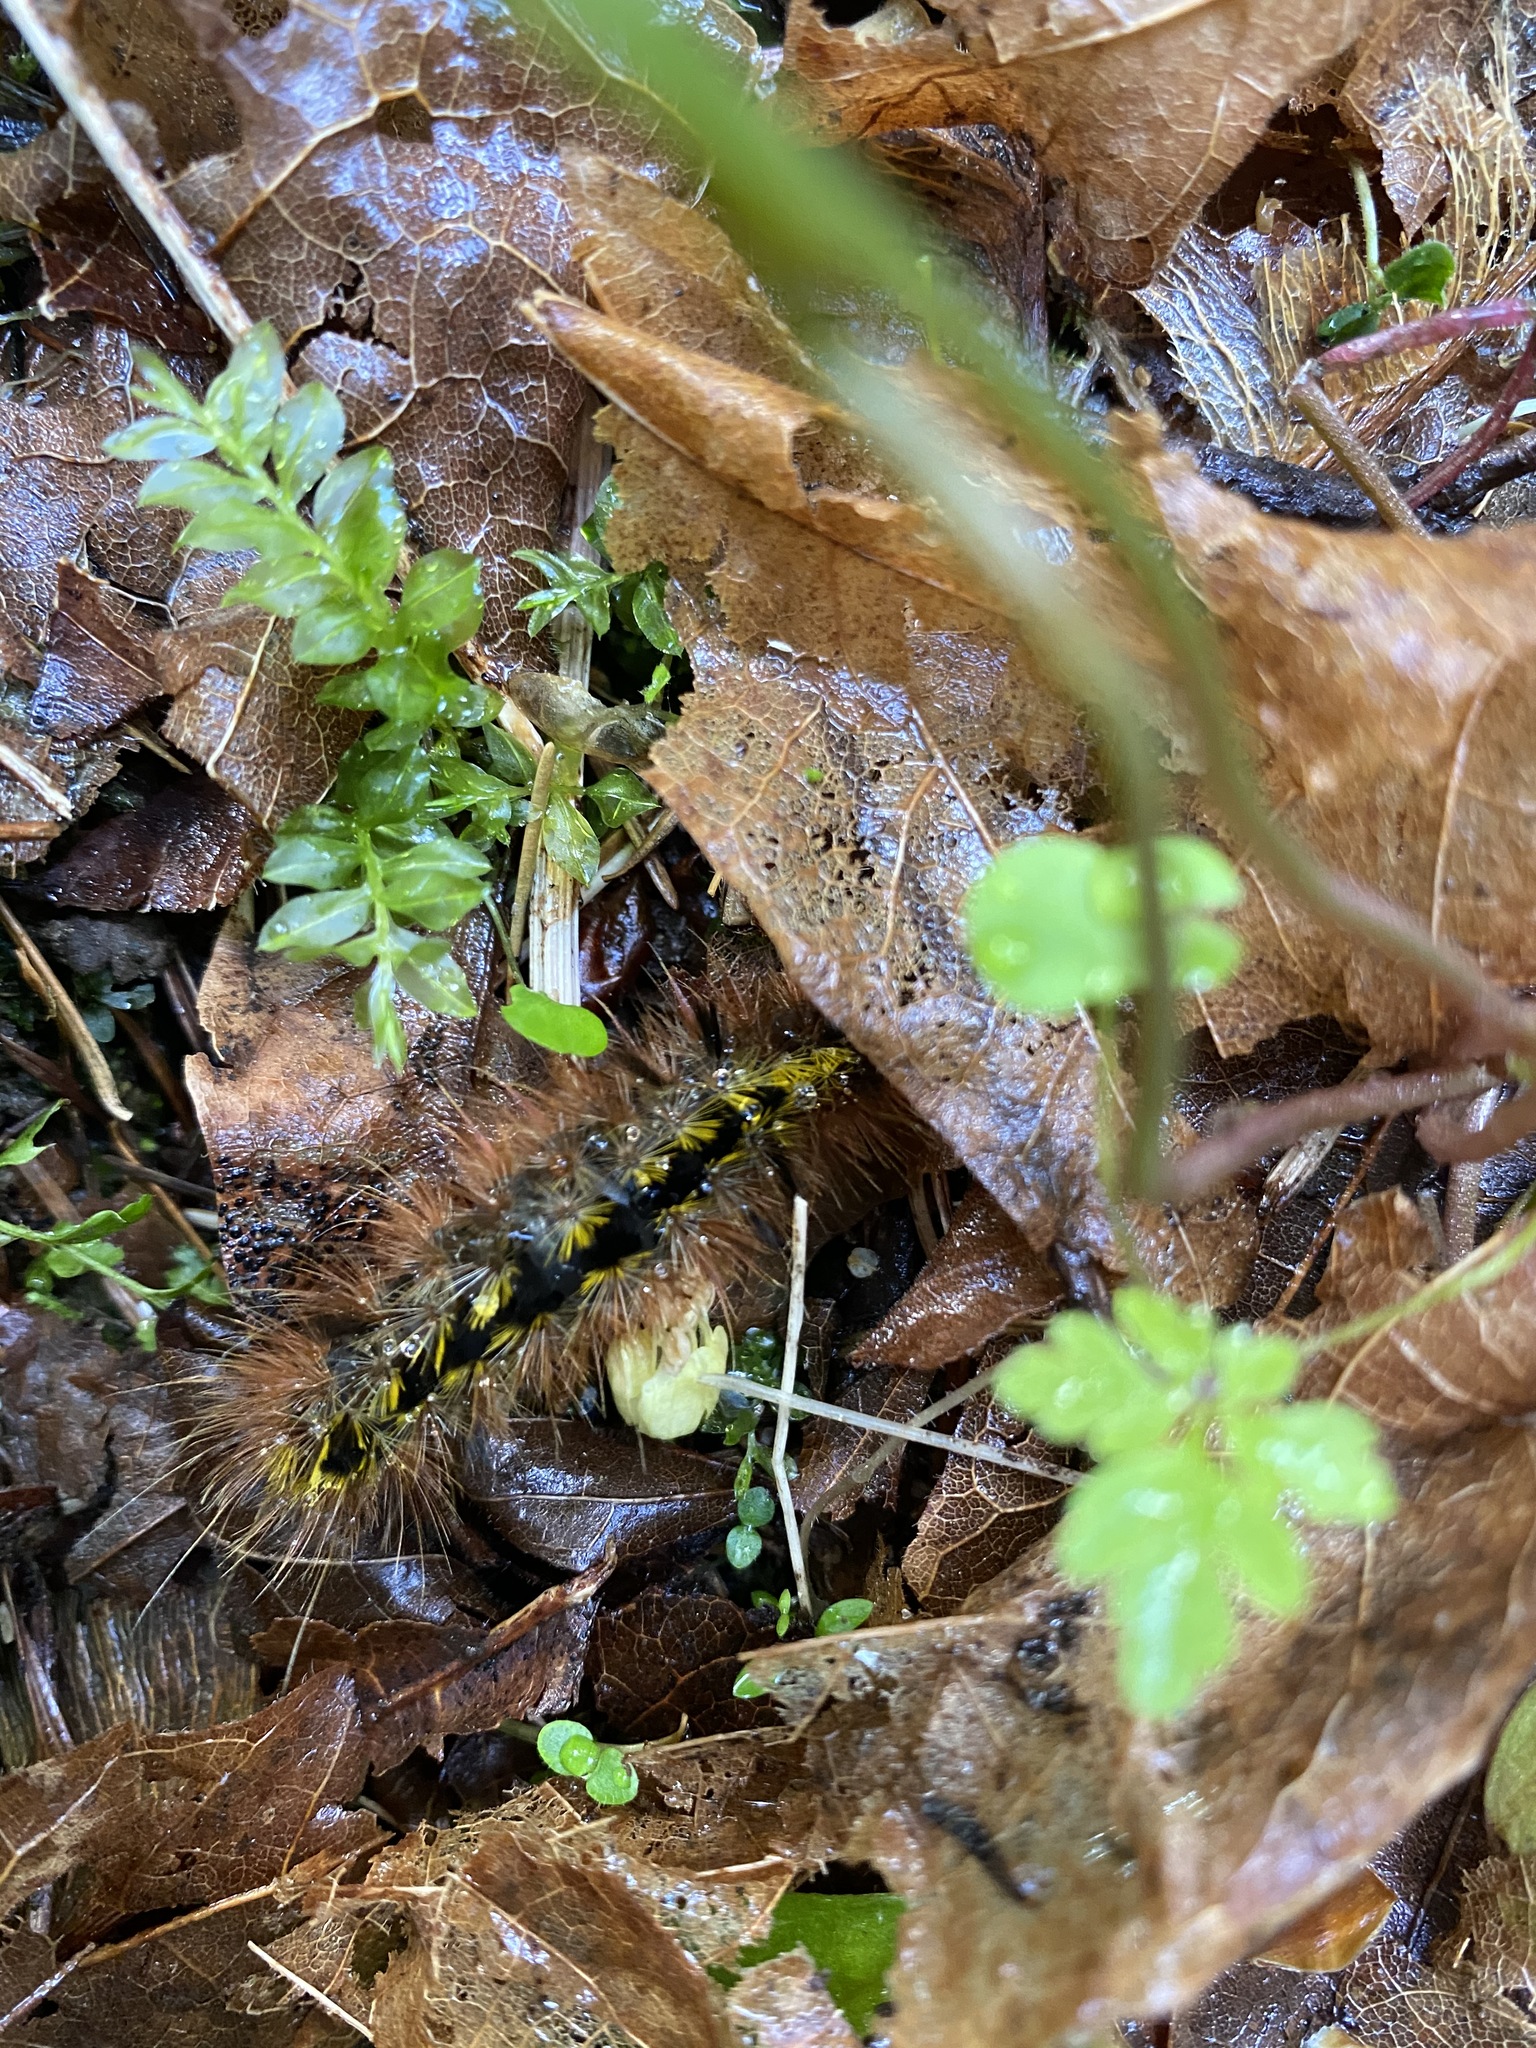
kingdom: Animalia
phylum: Arthropoda
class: Insecta
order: Lepidoptera
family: Erebidae
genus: Lophocampa
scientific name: Lophocampa argentata
